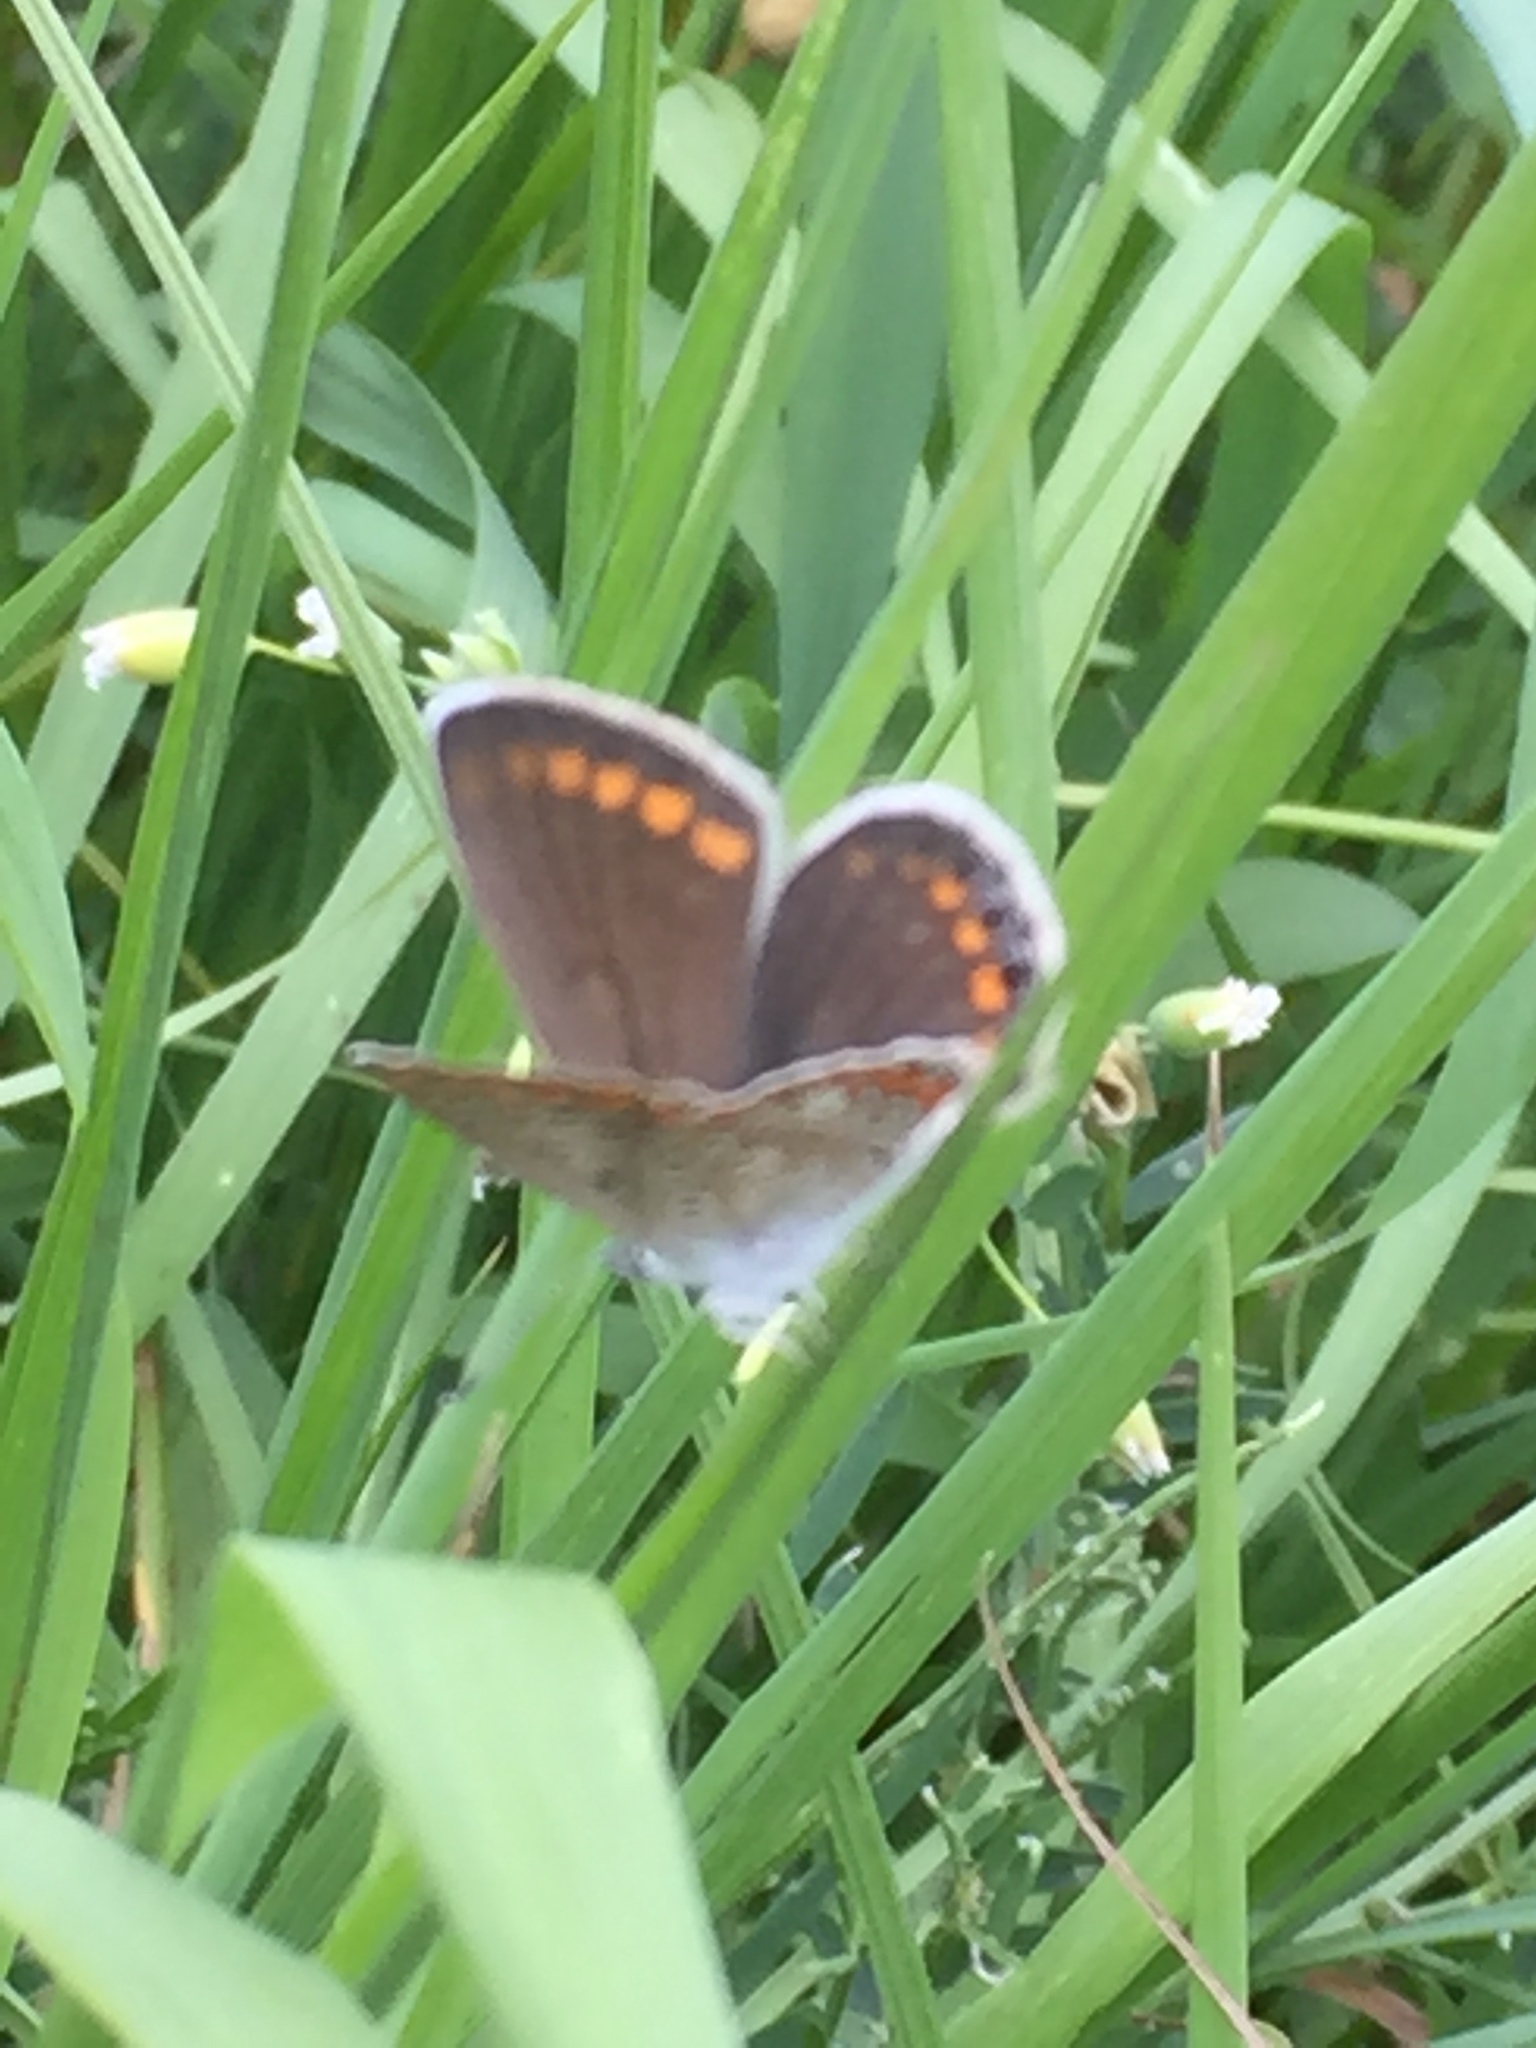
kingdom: Animalia
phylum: Arthropoda
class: Insecta
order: Lepidoptera
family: Lycaenidae
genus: Polyommatus
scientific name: Polyommatus icarus
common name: Common blue
